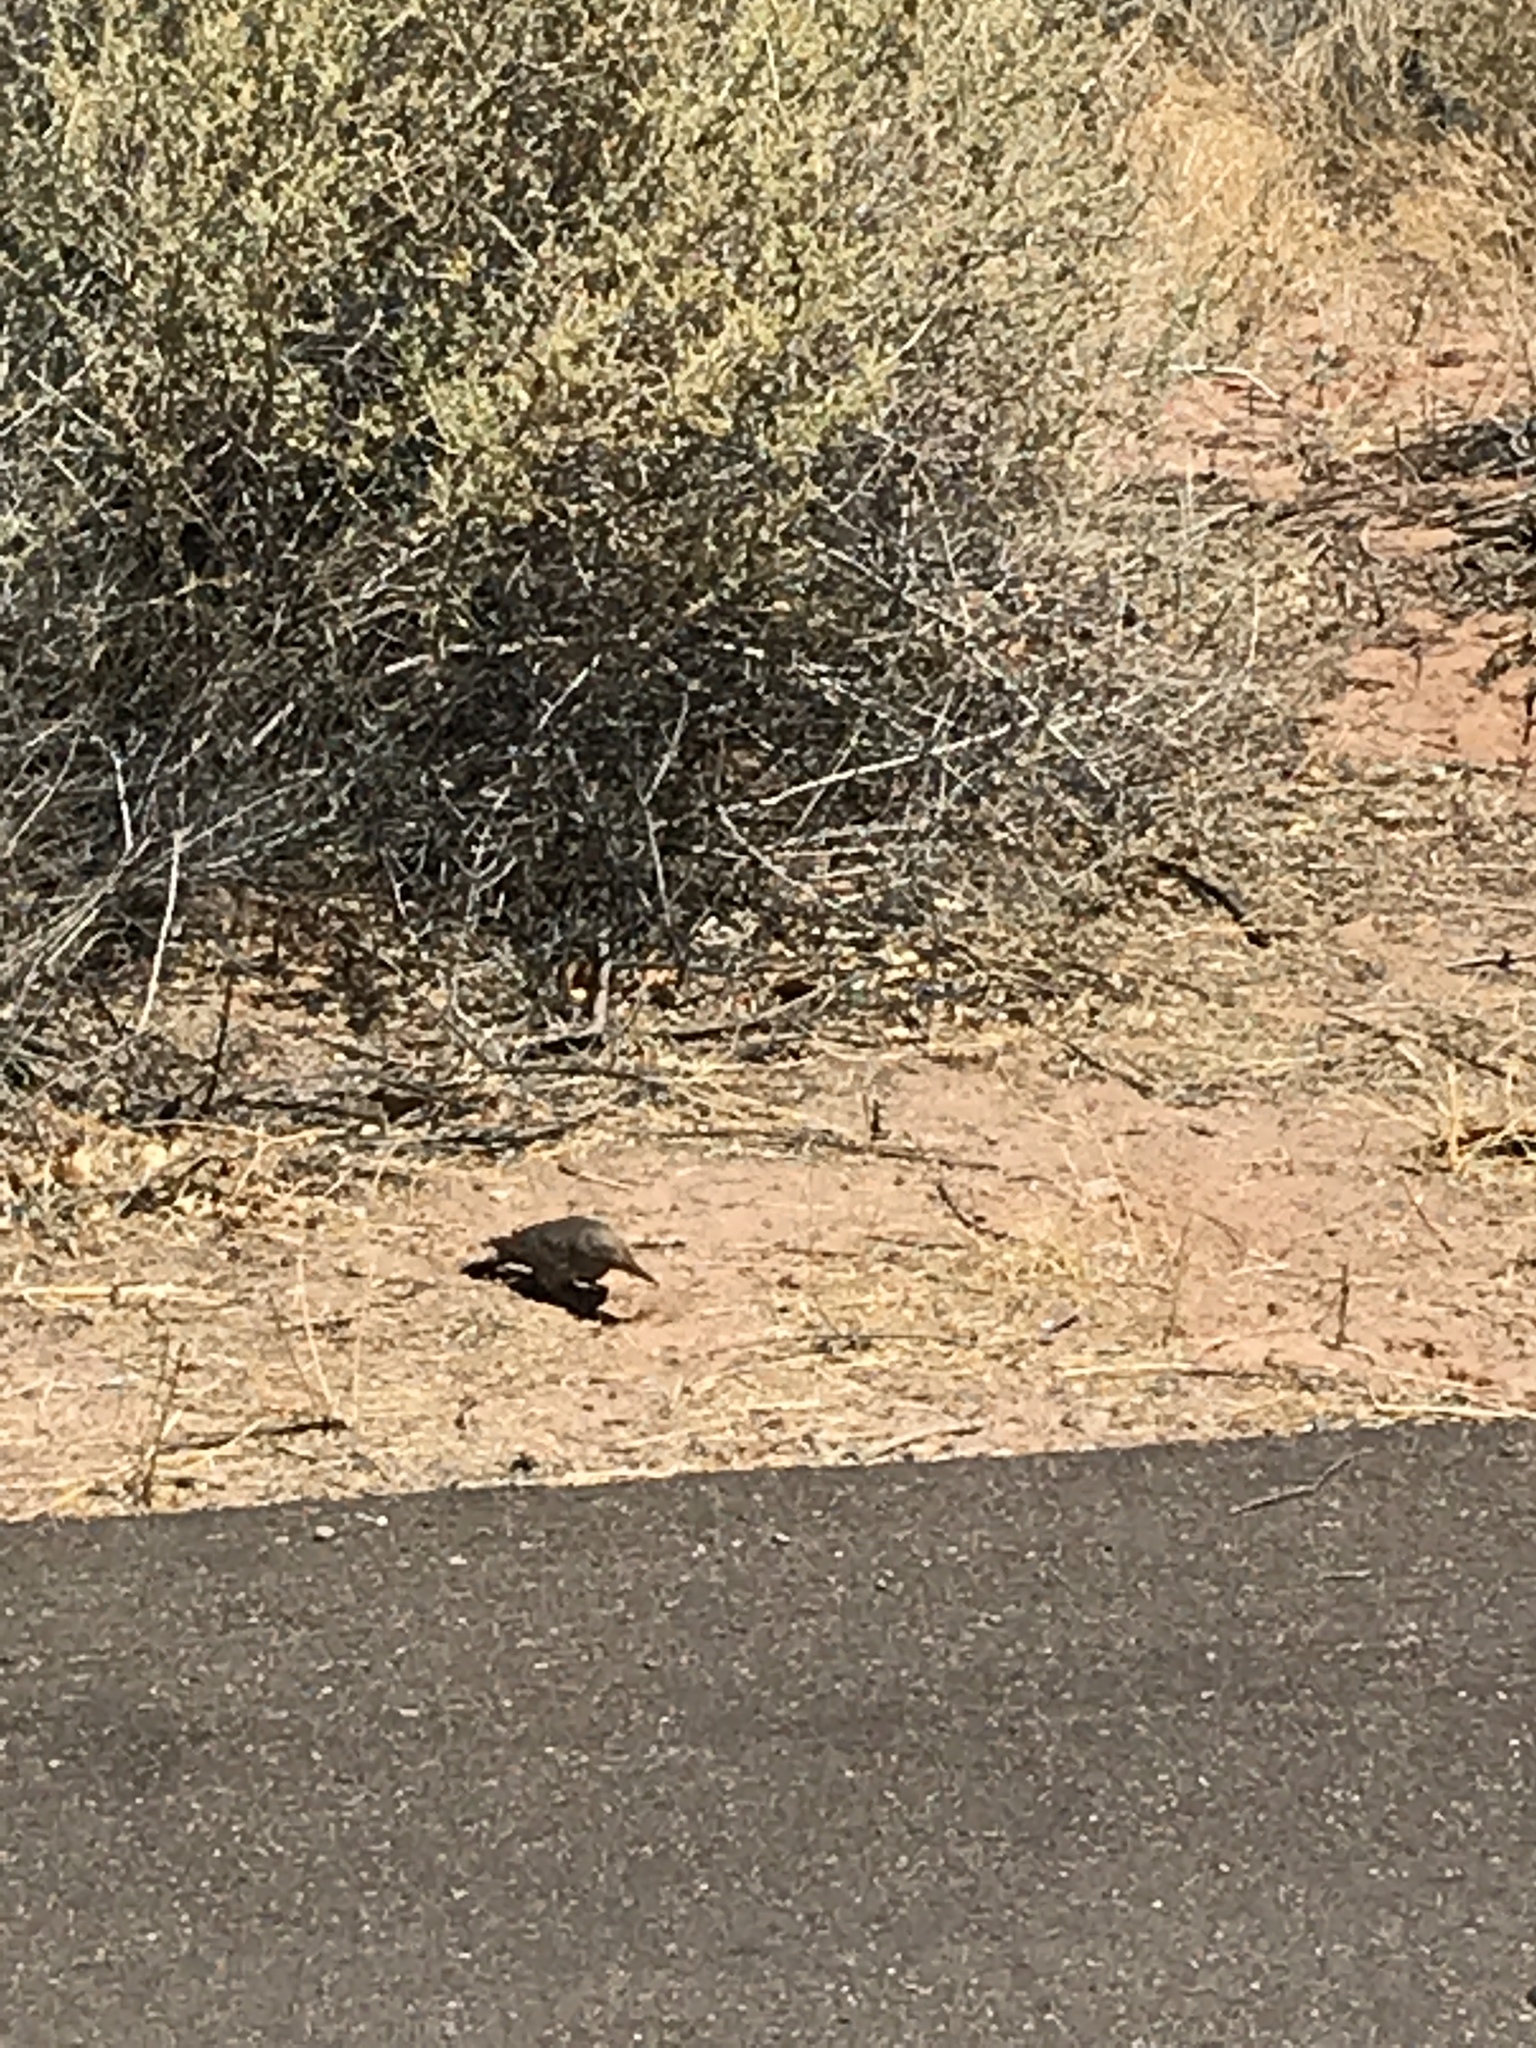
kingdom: Animalia
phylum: Chordata
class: Aves
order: Piciformes
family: Picidae
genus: Colaptes
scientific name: Colaptes auratus
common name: Northern flicker
